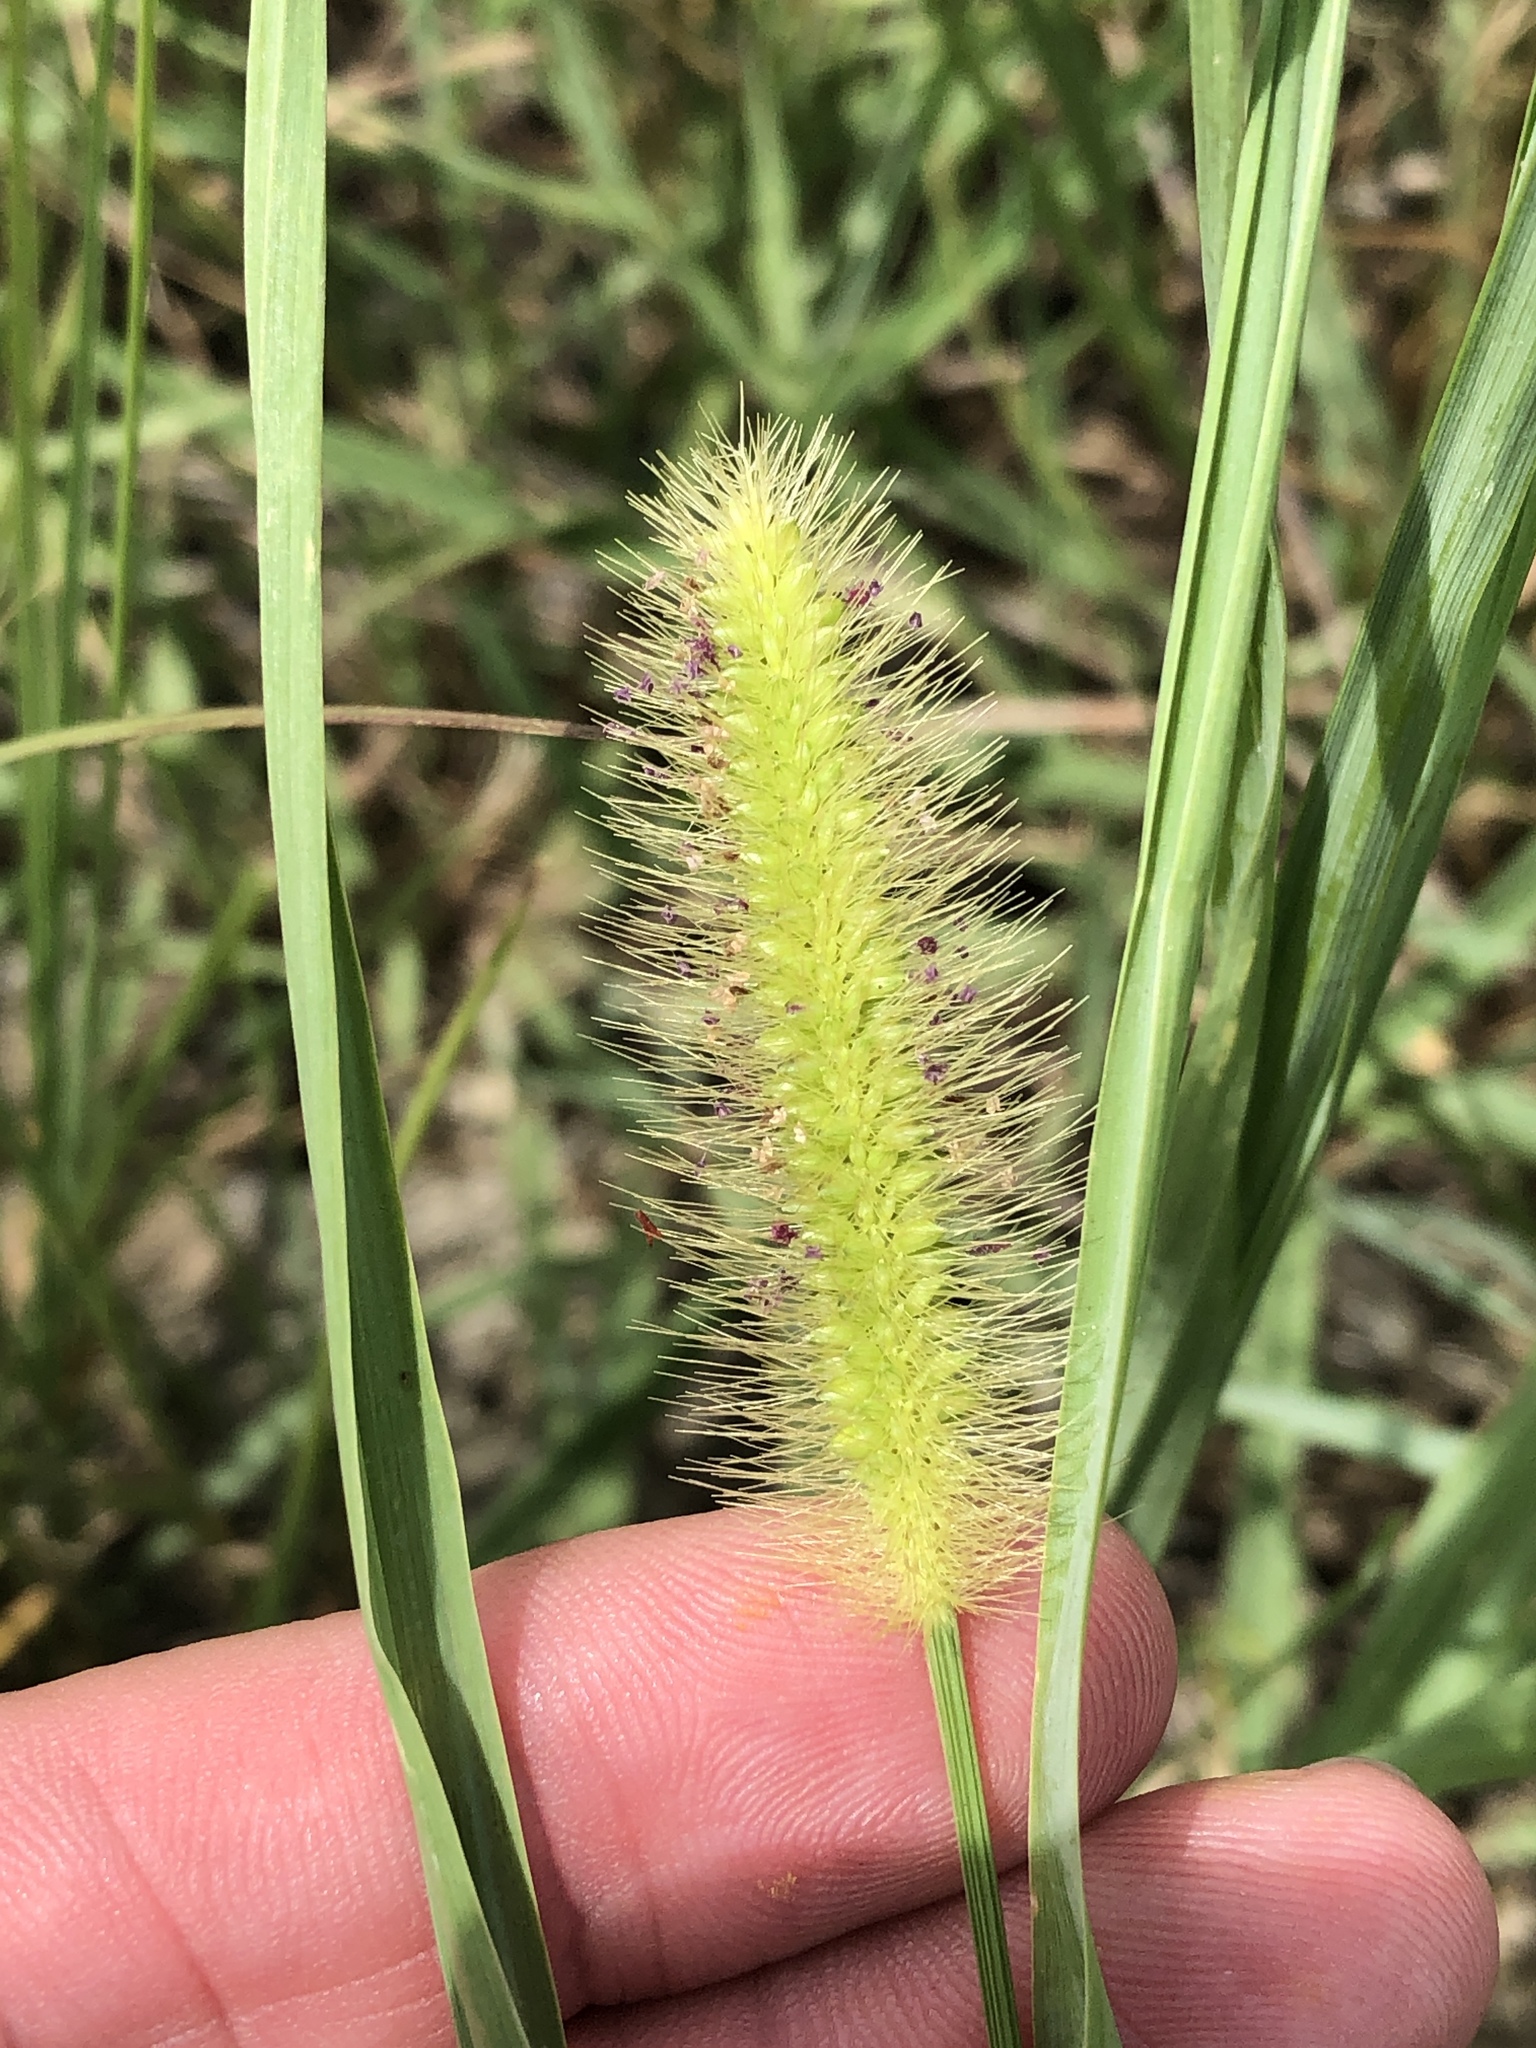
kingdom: Plantae
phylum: Tracheophyta
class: Liliopsida
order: Poales
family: Poaceae
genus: Setaria
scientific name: Setaria parviflora
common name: Knotroot bristle-grass
